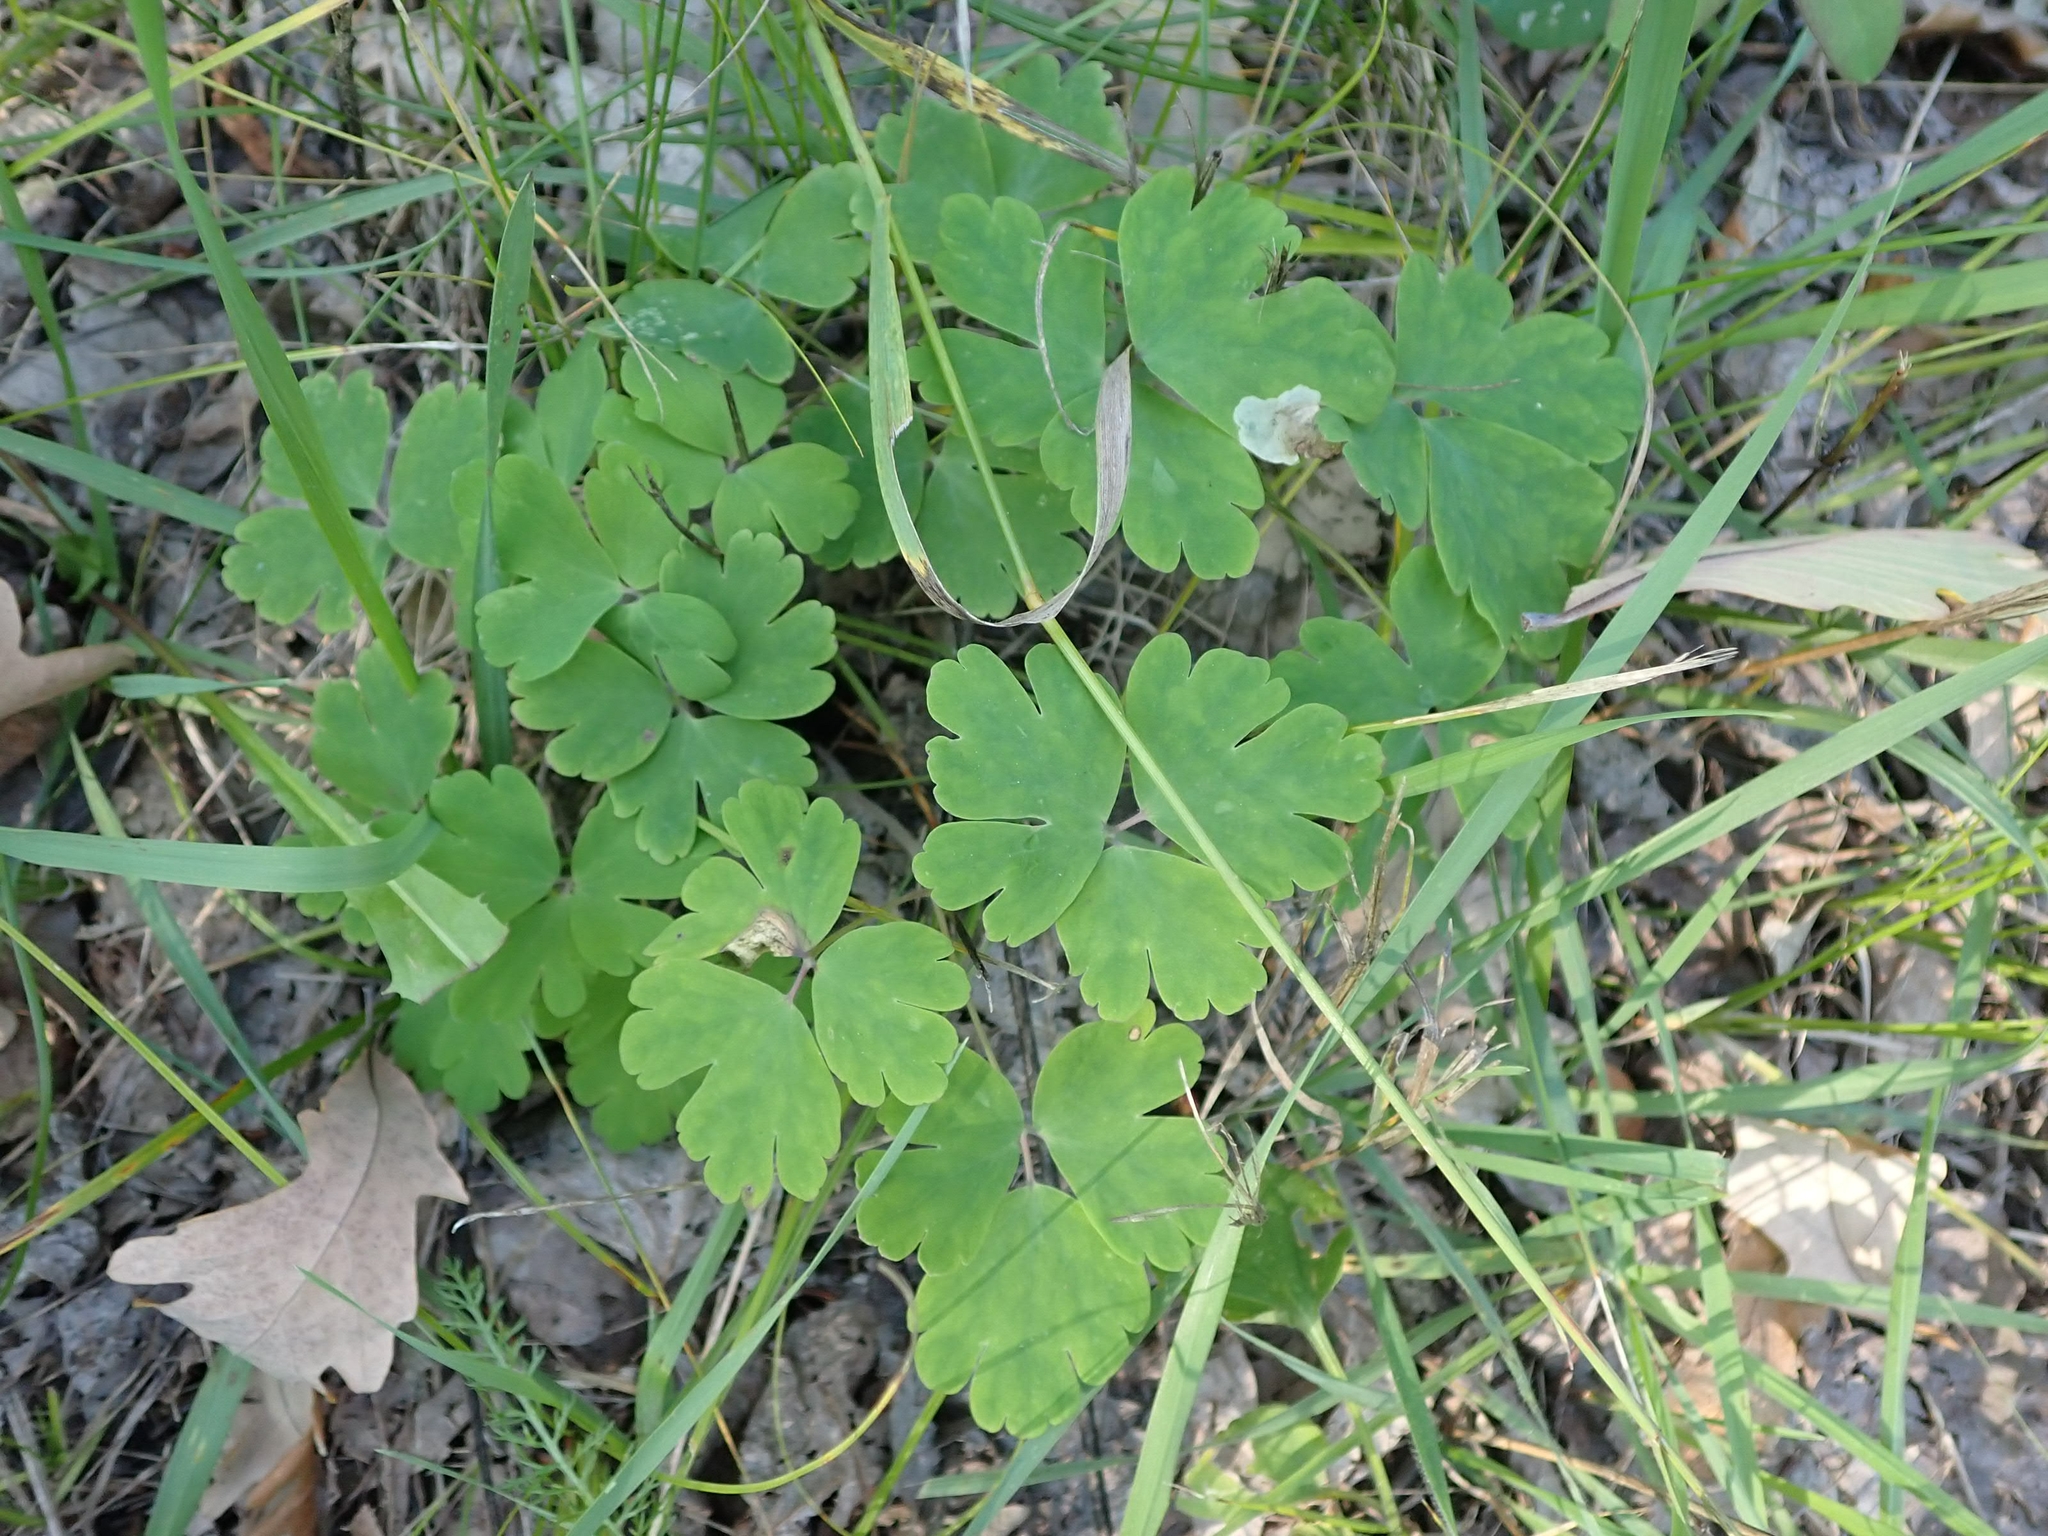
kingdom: Plantae
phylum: Tracheophyta
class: Magnoliopsida
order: Ranunculales
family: Ranunculaceae
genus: Aquilegia
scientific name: Aquilegia canadensis
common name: American columbine
